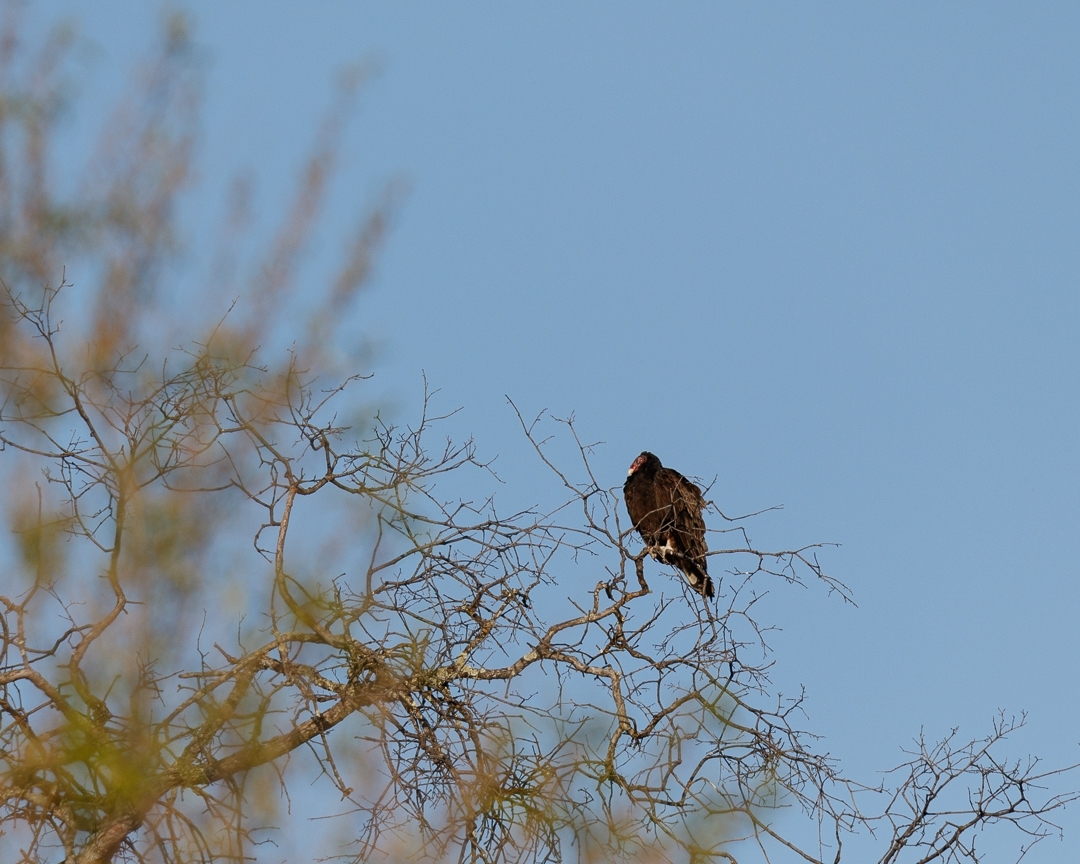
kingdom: Animalia
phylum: Chordata
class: Aves
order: Accipitriformes
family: Cathartidae
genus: Cathartes
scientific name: Cathartes aura
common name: Turkey vulture
